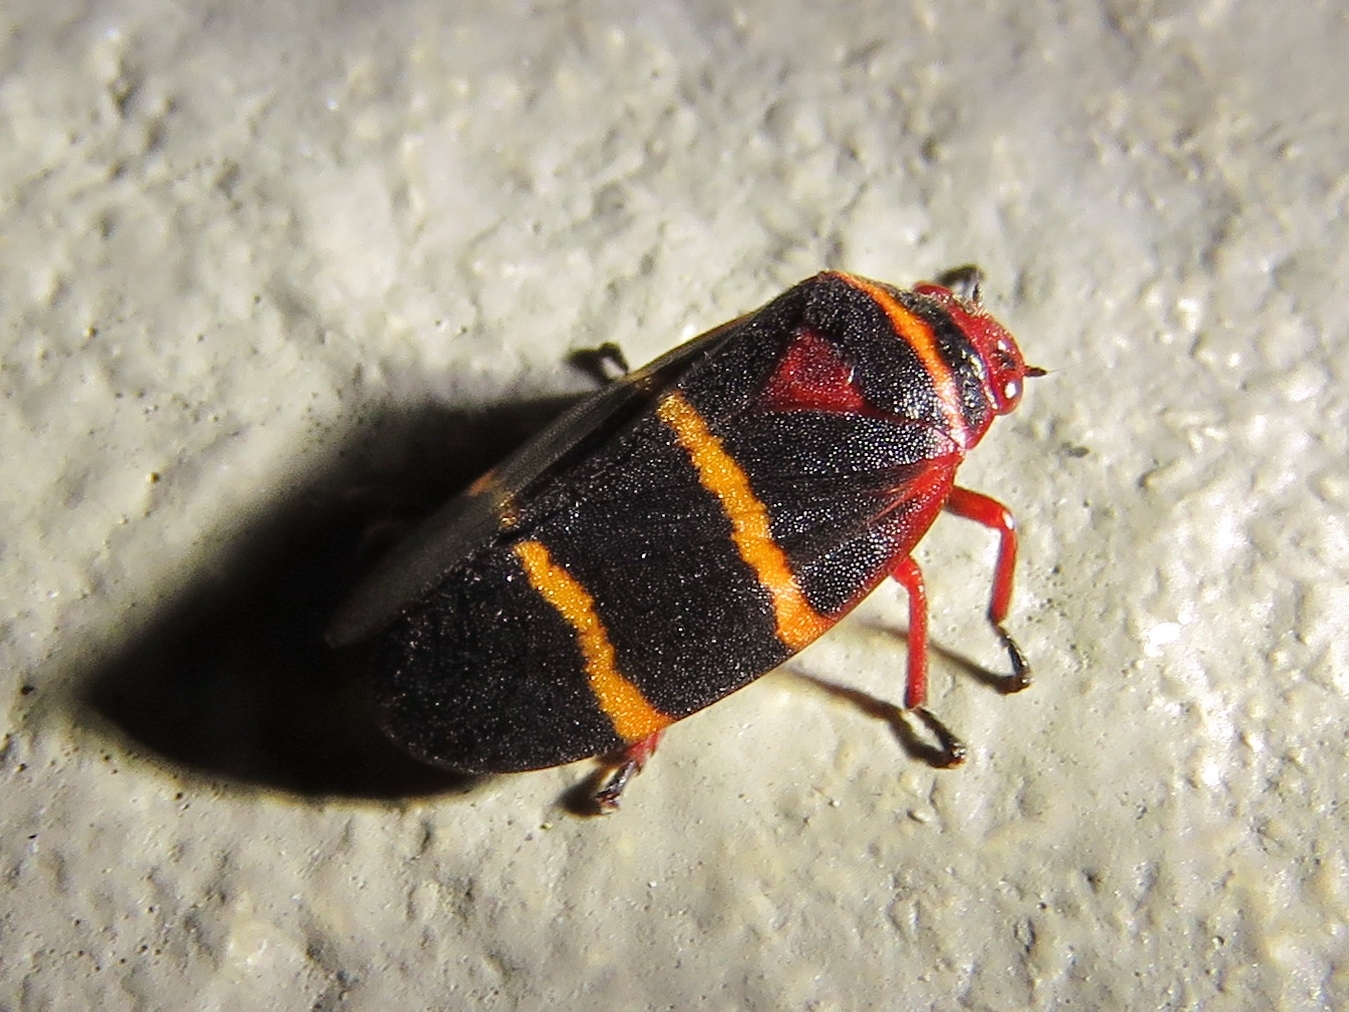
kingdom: Animalia
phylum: Arthropoda
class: Insecta
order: Hemiptera
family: Cercopidae
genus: Prosapia
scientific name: Prosapia bicincta
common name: Twolined spittlebug
